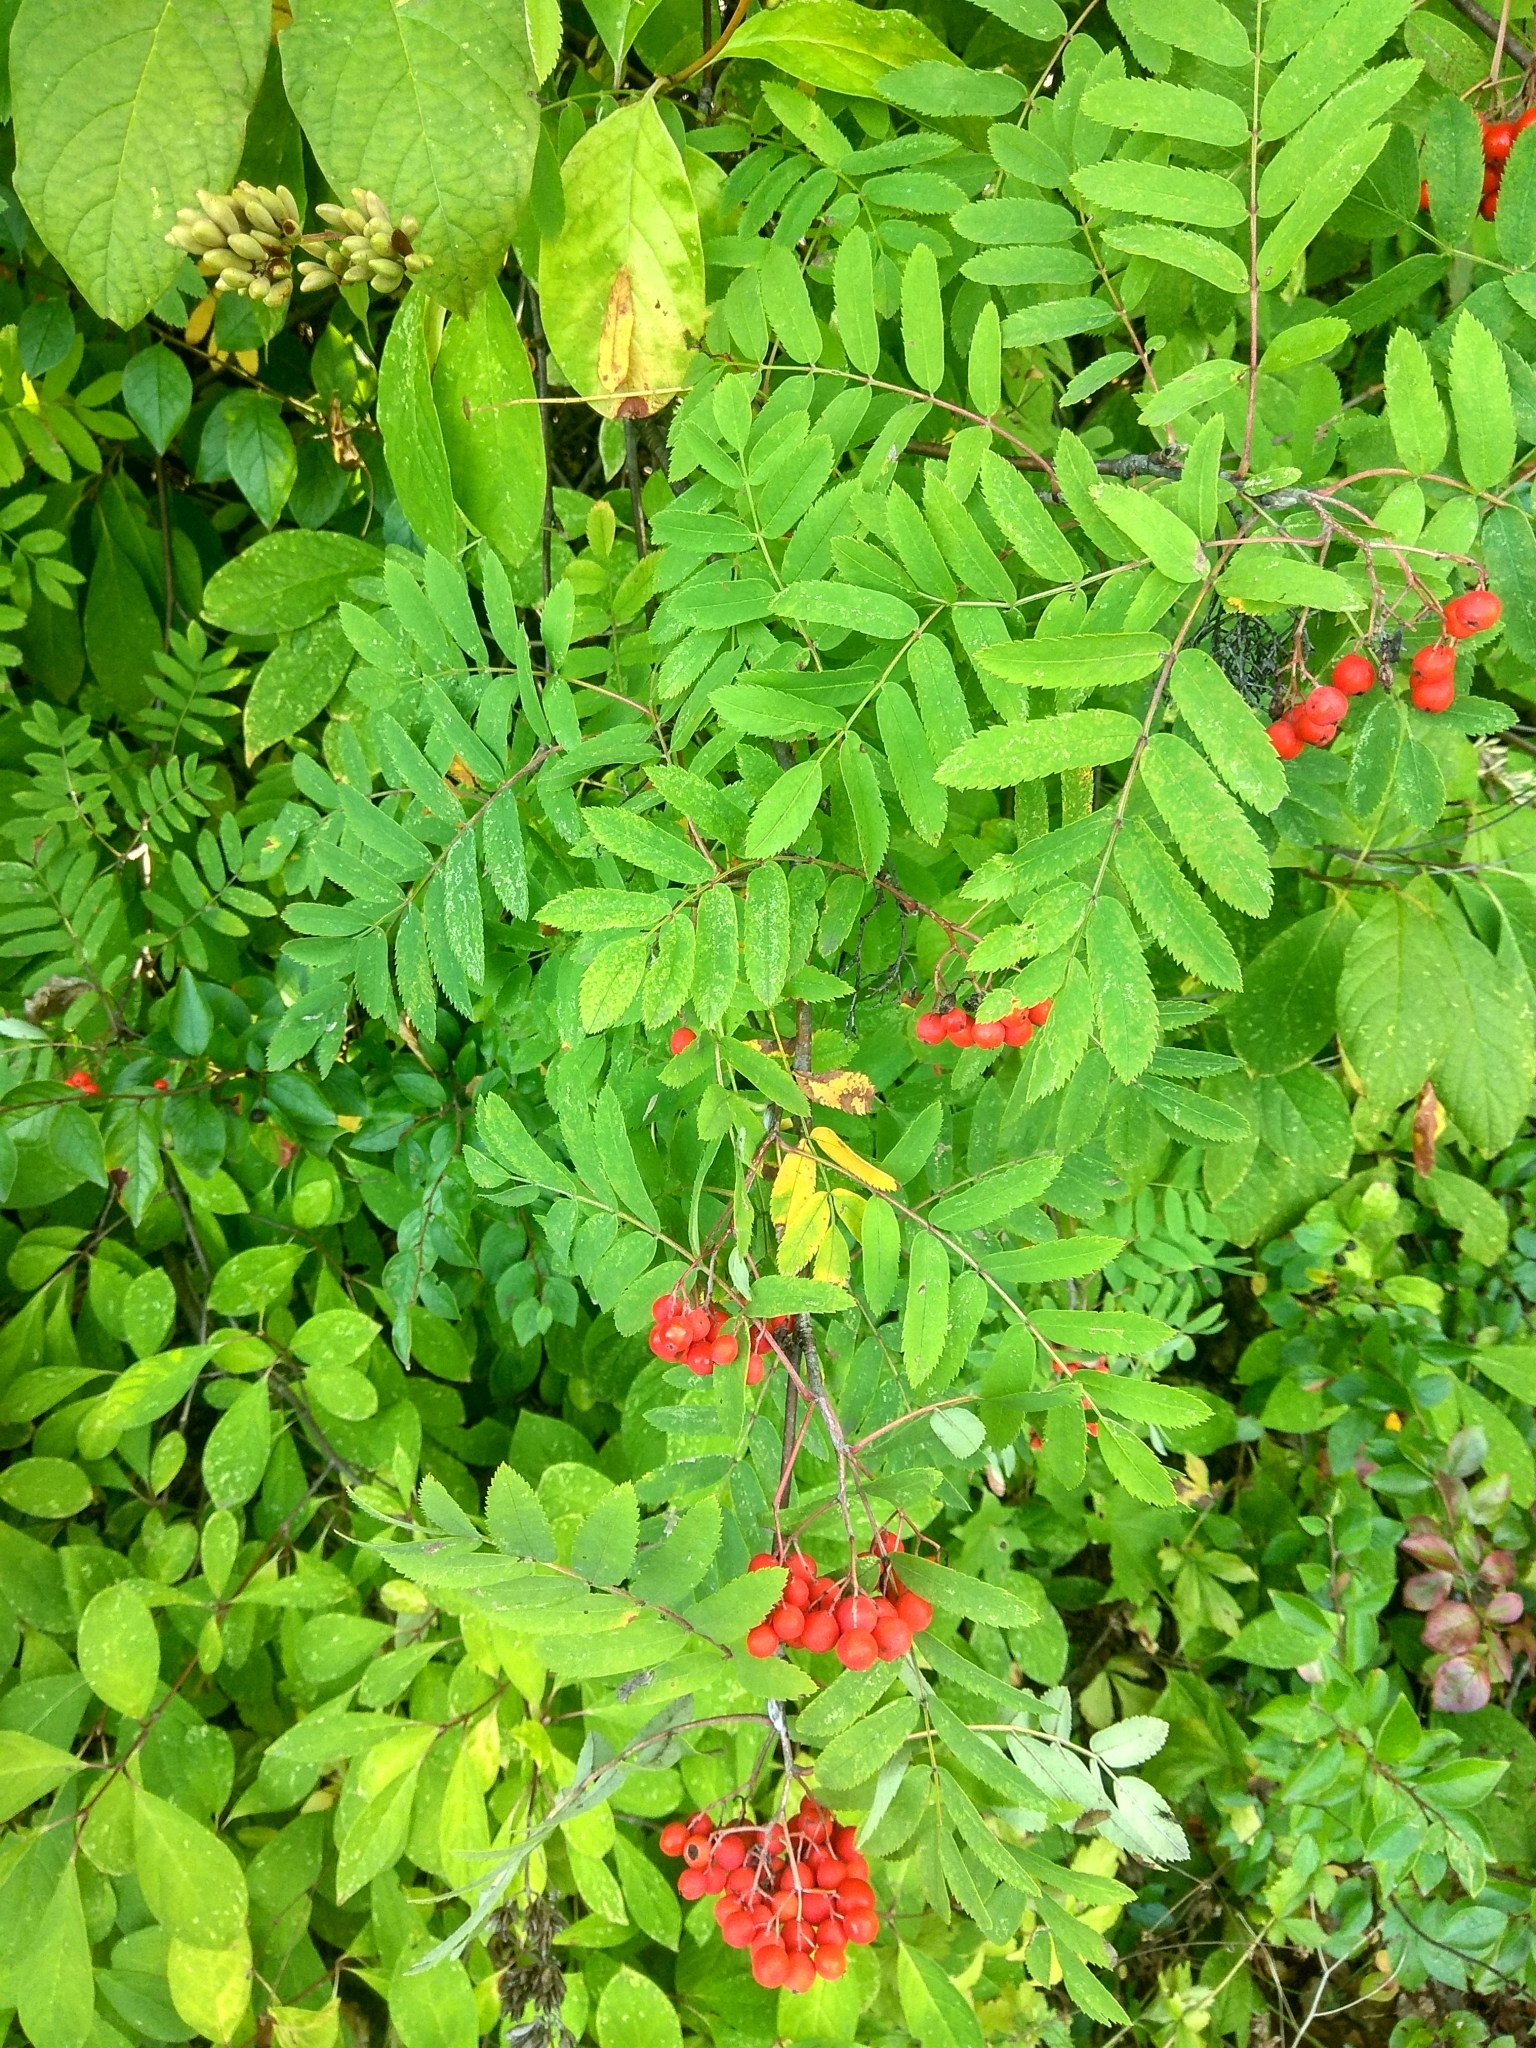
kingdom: Plantae
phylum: Tracheophyta
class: Magnoliopsida
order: Rosales
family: Rosaceae
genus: Sorbus
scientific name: Sorbus aucuparia
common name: Rowan
